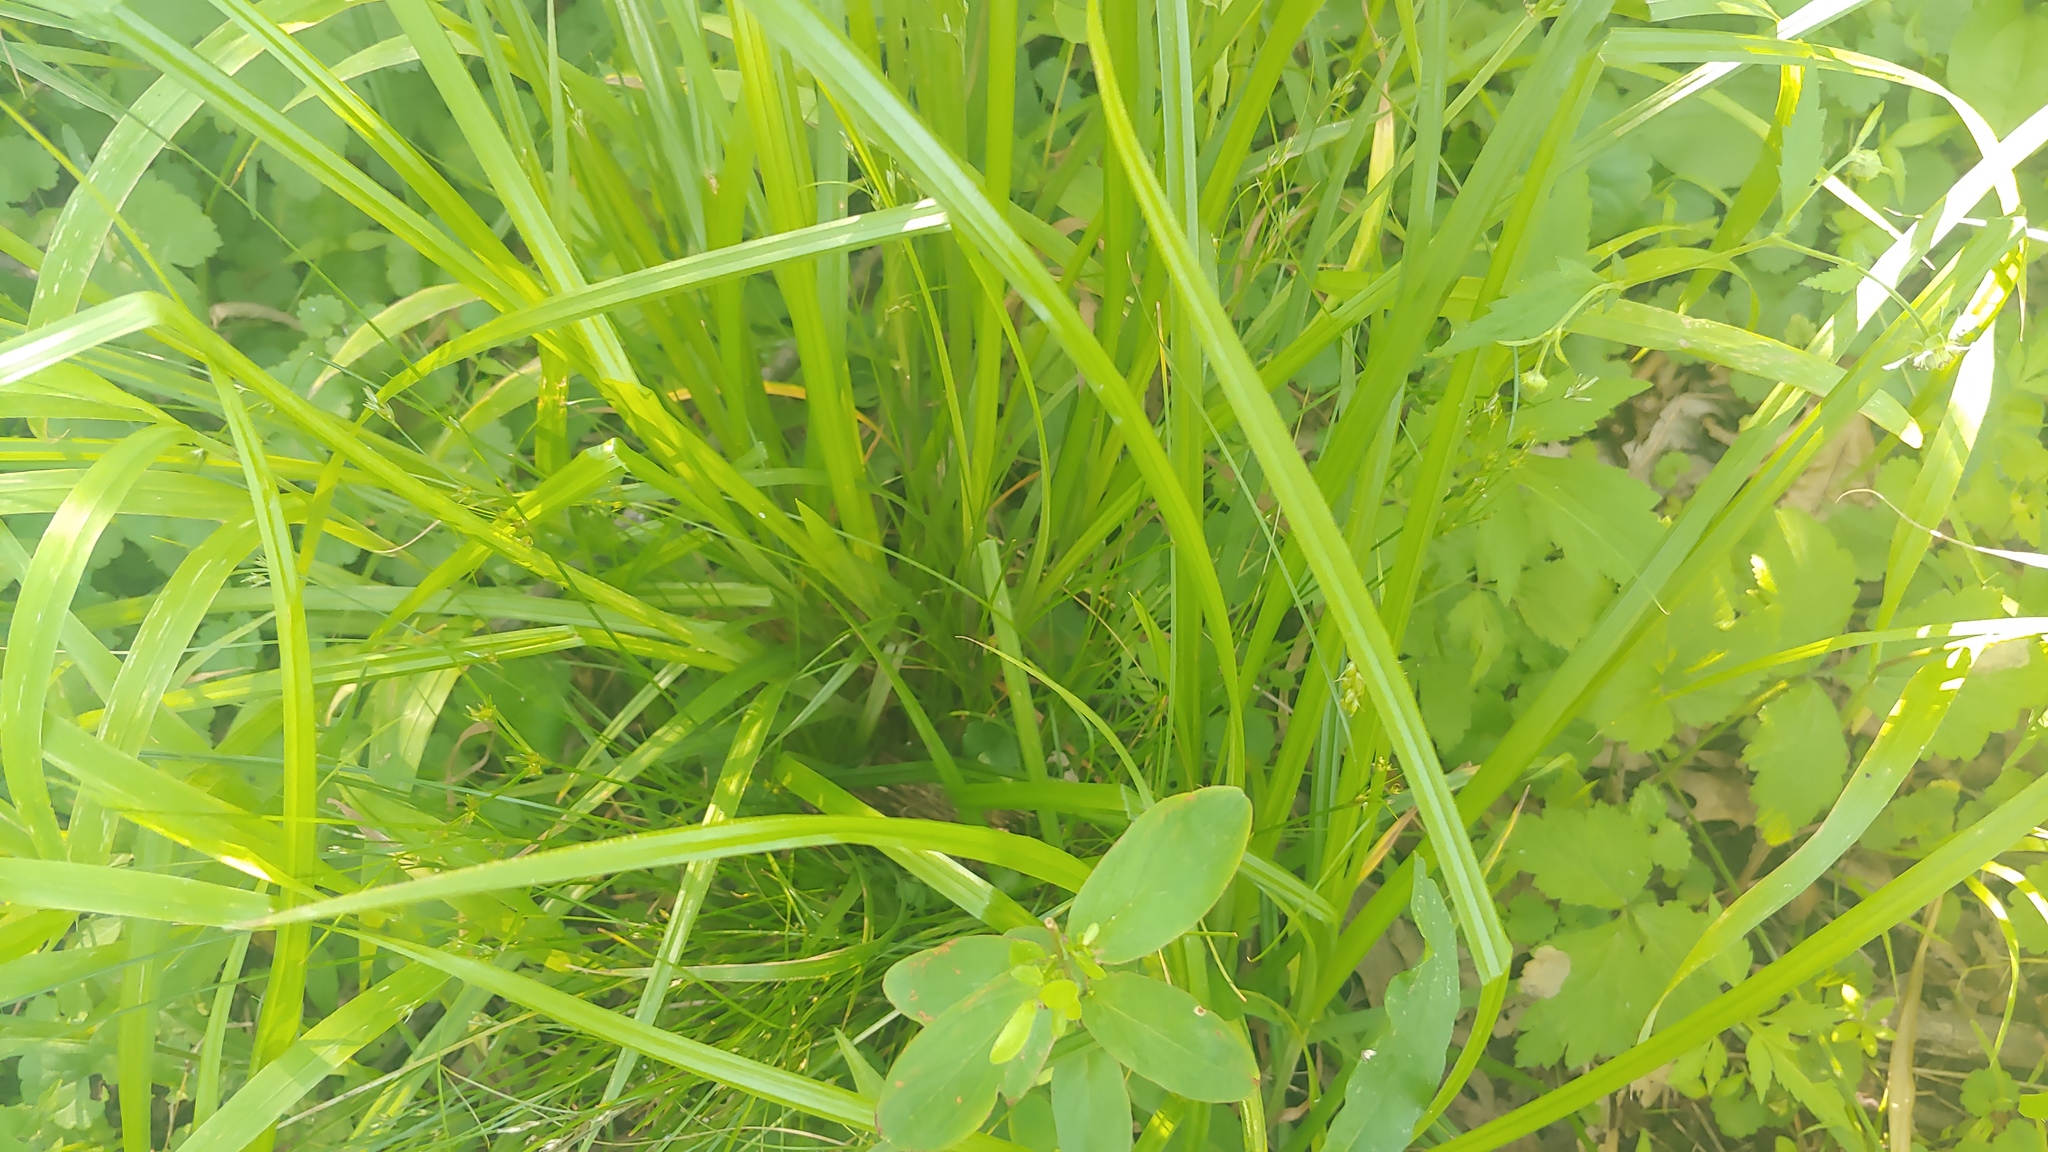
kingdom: Plantae
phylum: Tracheophyta
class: Liliopsida
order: Poales
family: Cyperaceae
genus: Carex
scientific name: Carex davisii
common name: Davis' sedge
